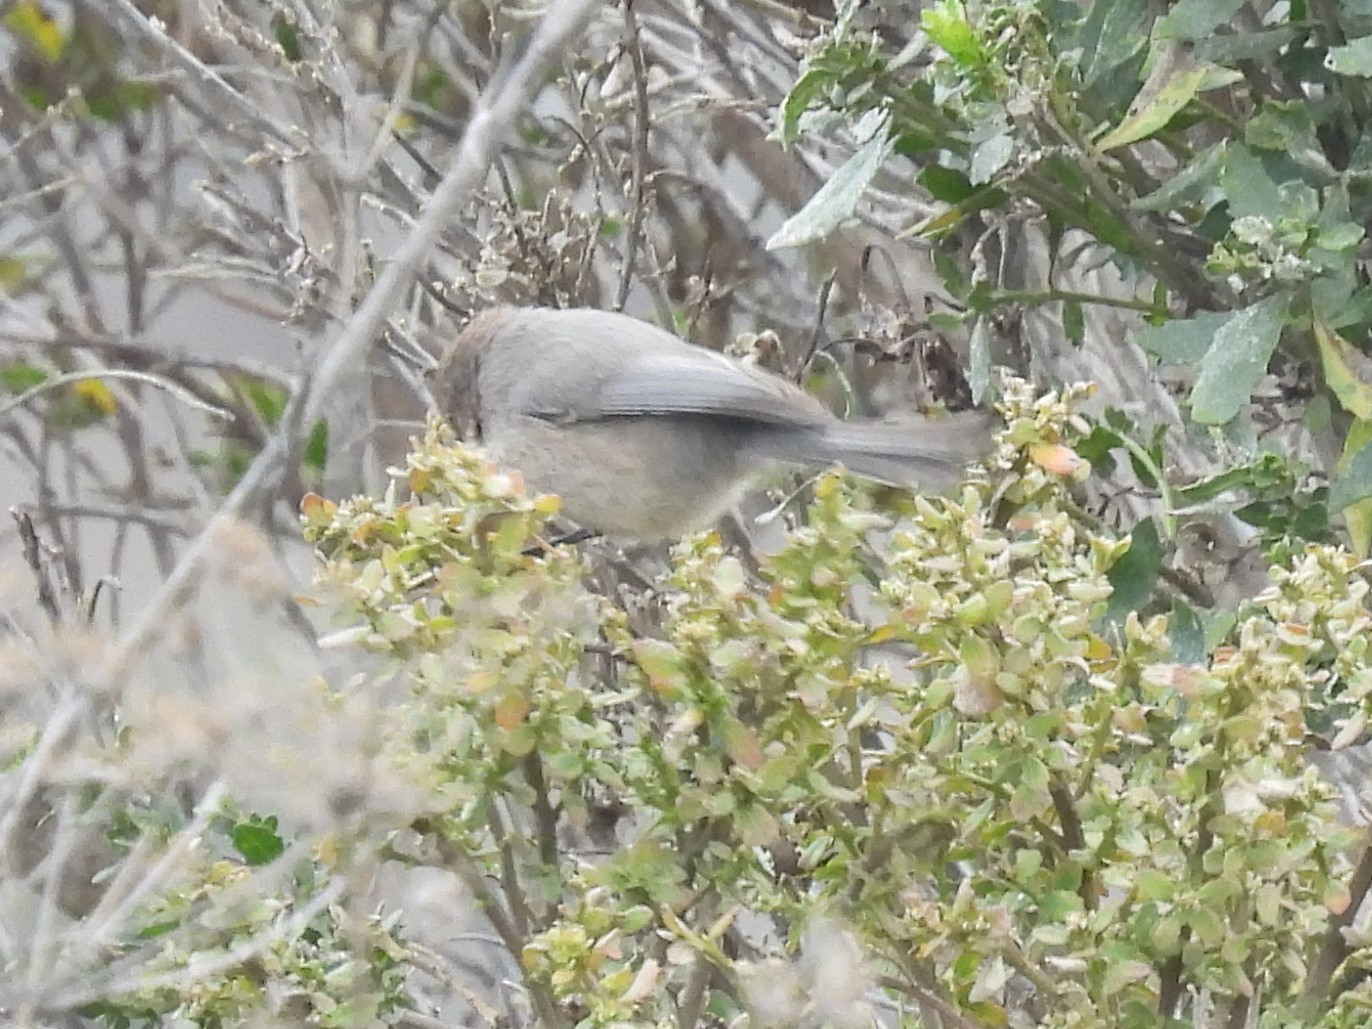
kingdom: Animalia
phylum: Chordata
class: Aves
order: Passeriformes
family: Aegithalidae
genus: Psaltriparus
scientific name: Psaltriparus minimus
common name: American bushtit
